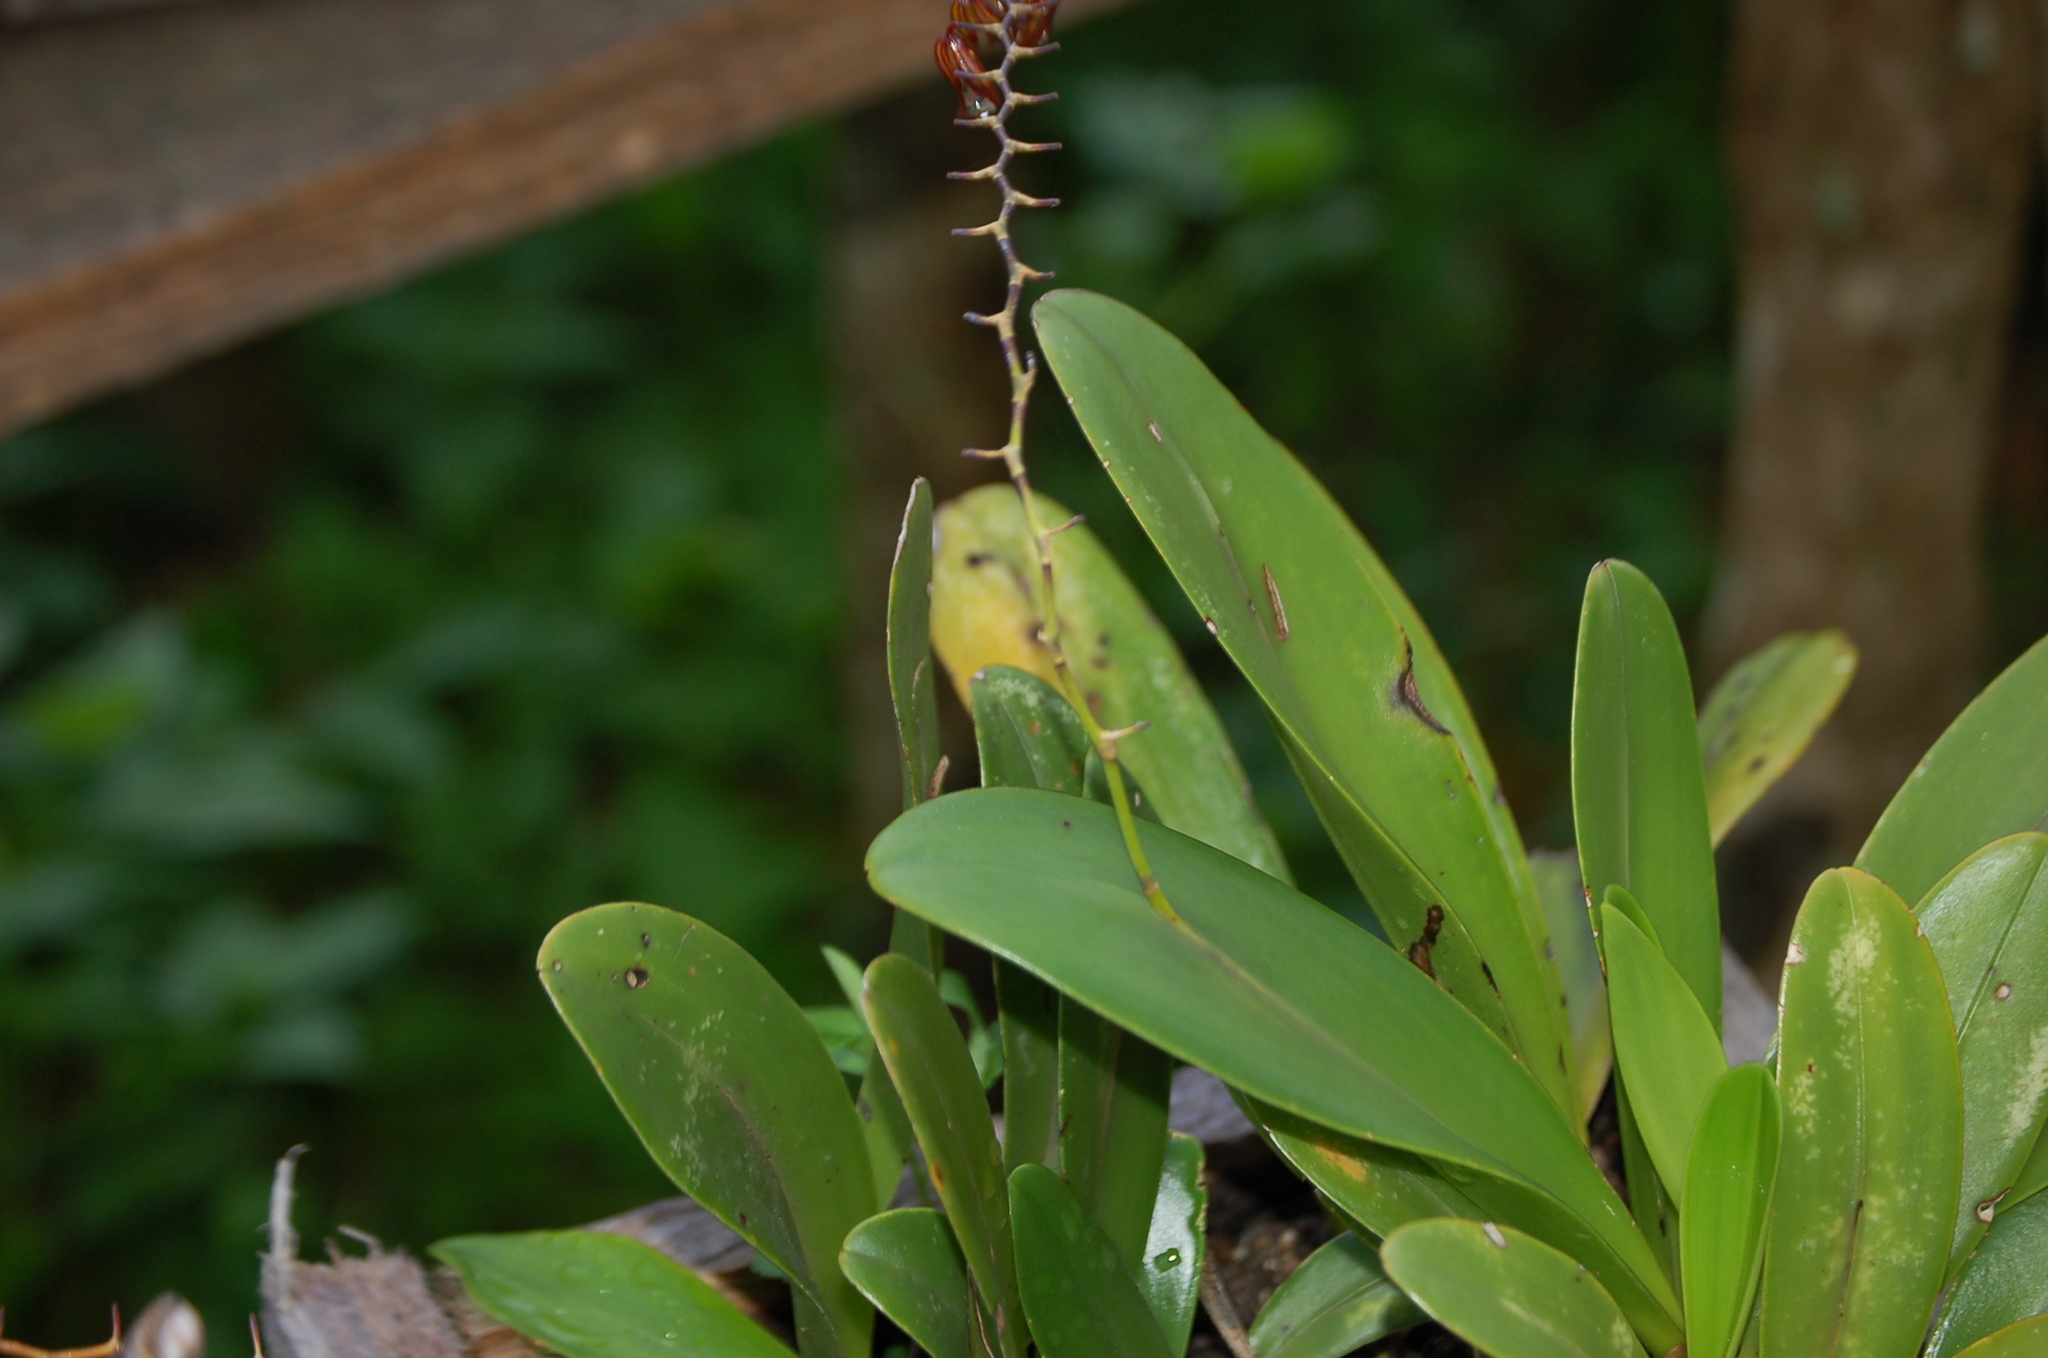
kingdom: Plantae
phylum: Tracheophyta
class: Liliopsida
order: Asparagales
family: Orchidaceae
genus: Stelis
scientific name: Stelis immersa
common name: Sunken pleurothallis
